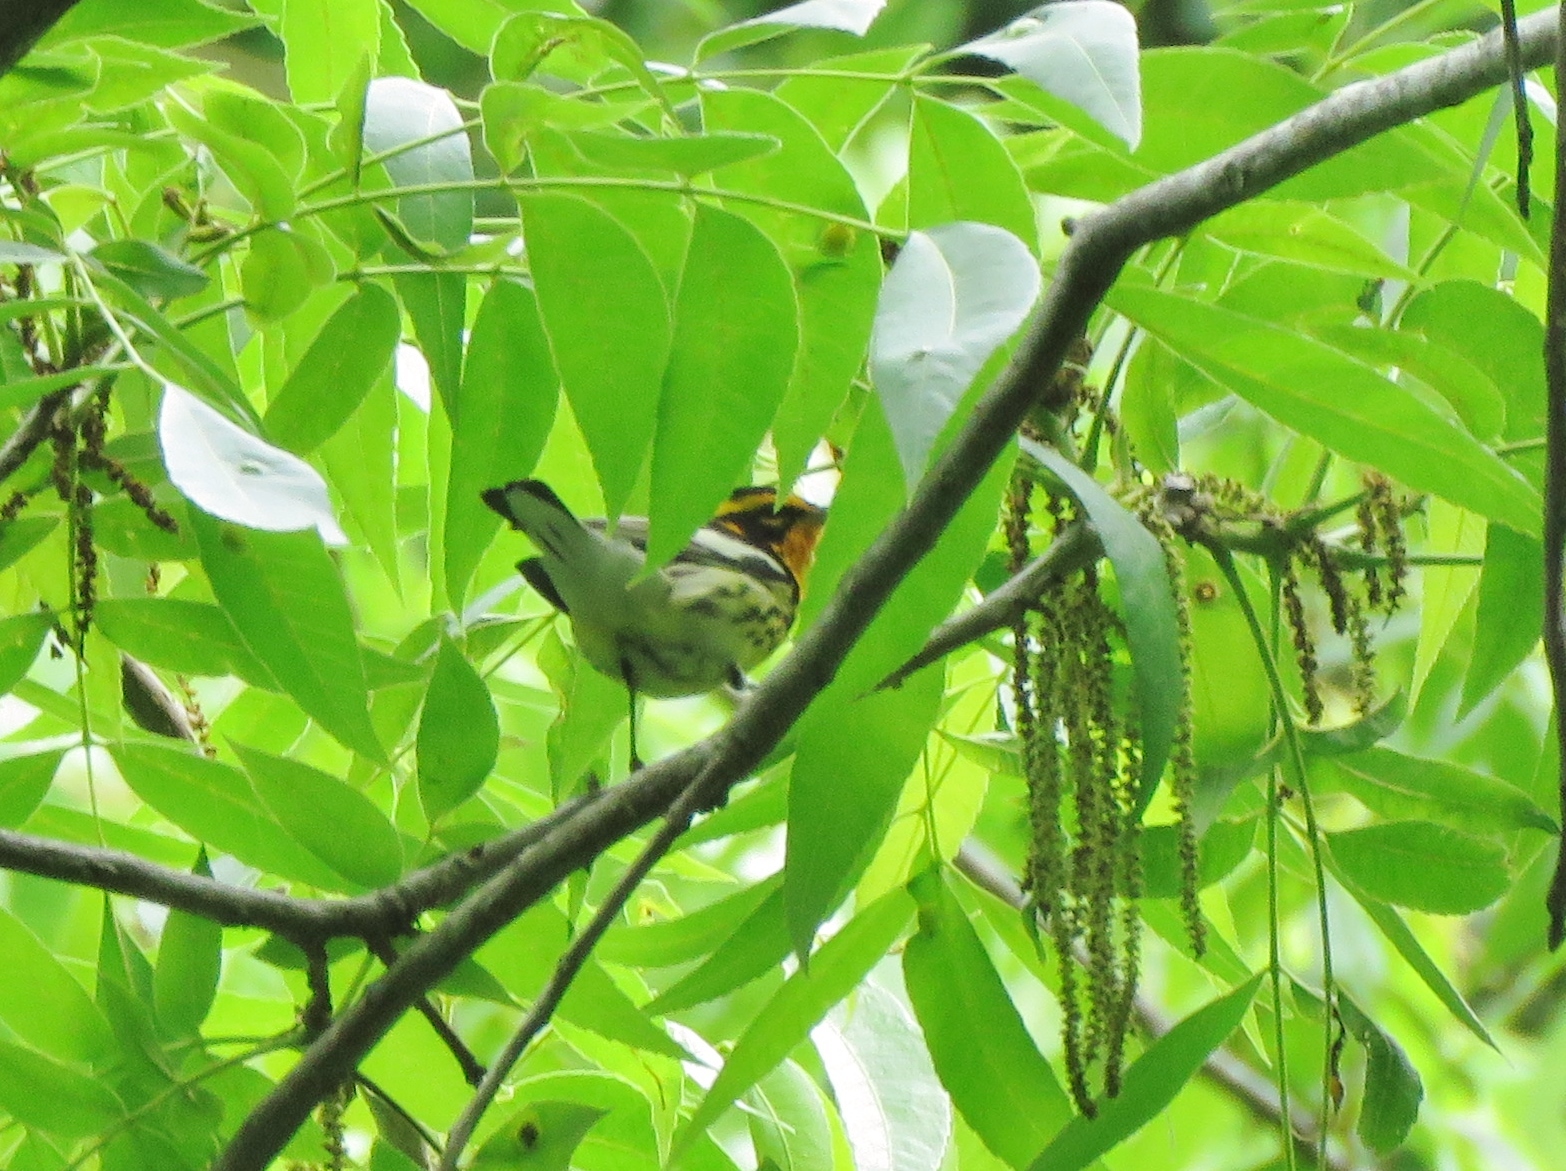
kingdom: Animalia
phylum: Chordata
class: Aves
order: Passeriformes
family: Parulidae
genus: Setophaga
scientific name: Setophaga fusca
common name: Blackburnian warbler
